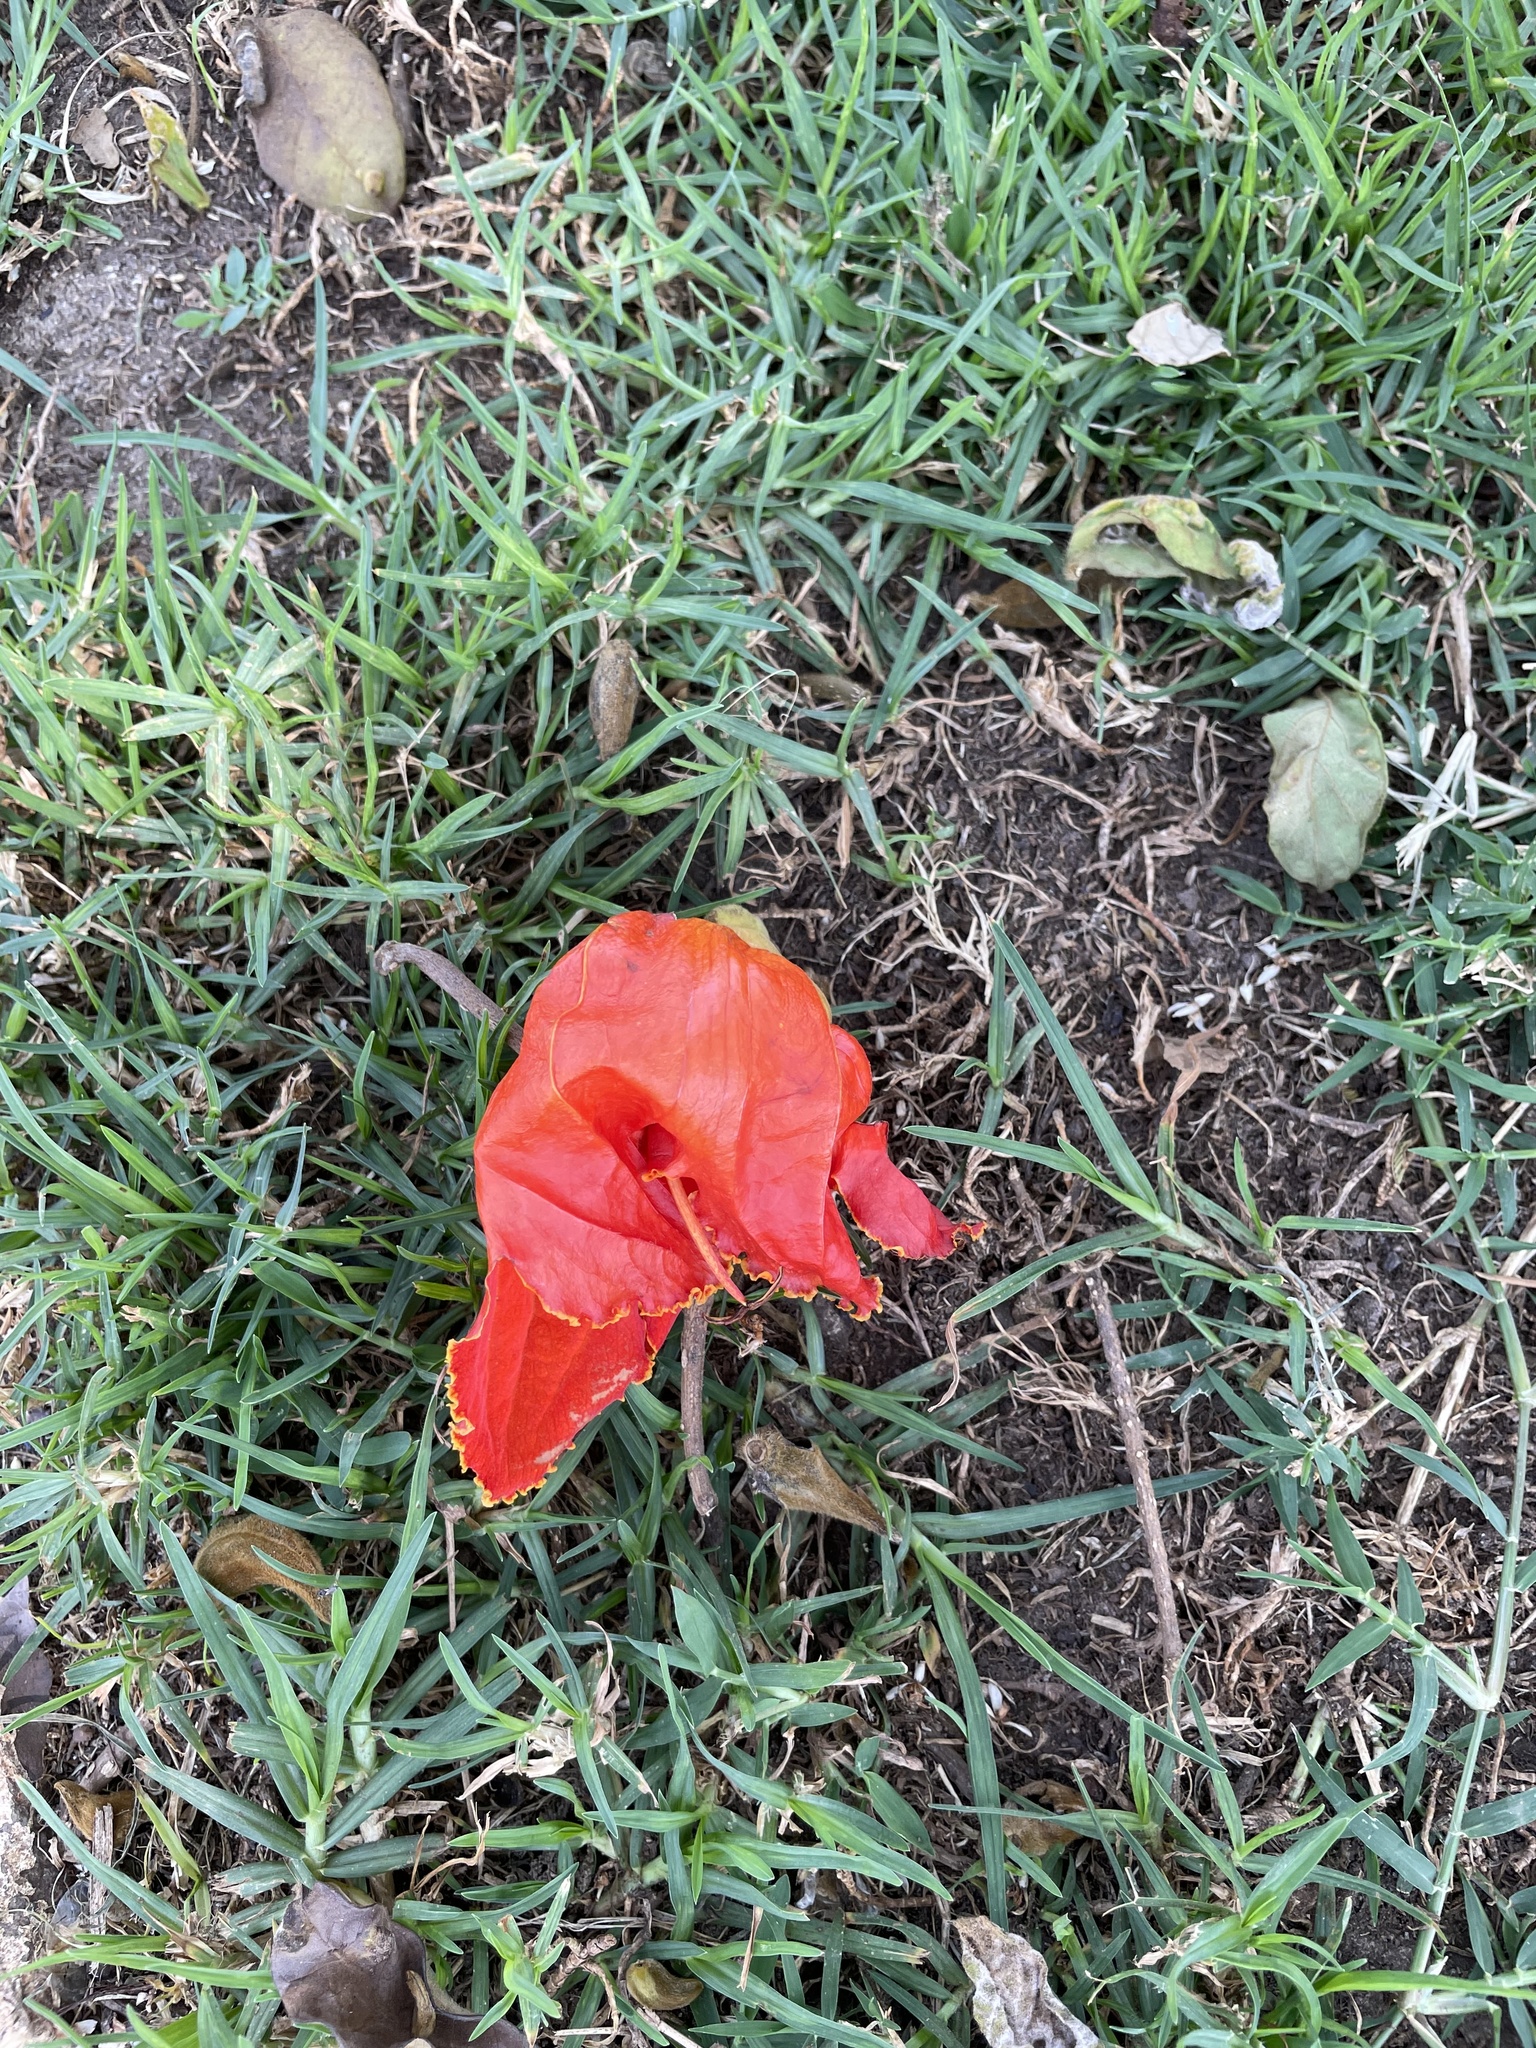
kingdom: Plantae
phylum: Tracheophyta
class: Magnoliopsida
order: Lamiales
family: Bignoniaceae
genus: Spathodea
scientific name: Spathodea campanulata
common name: African tuliptree
